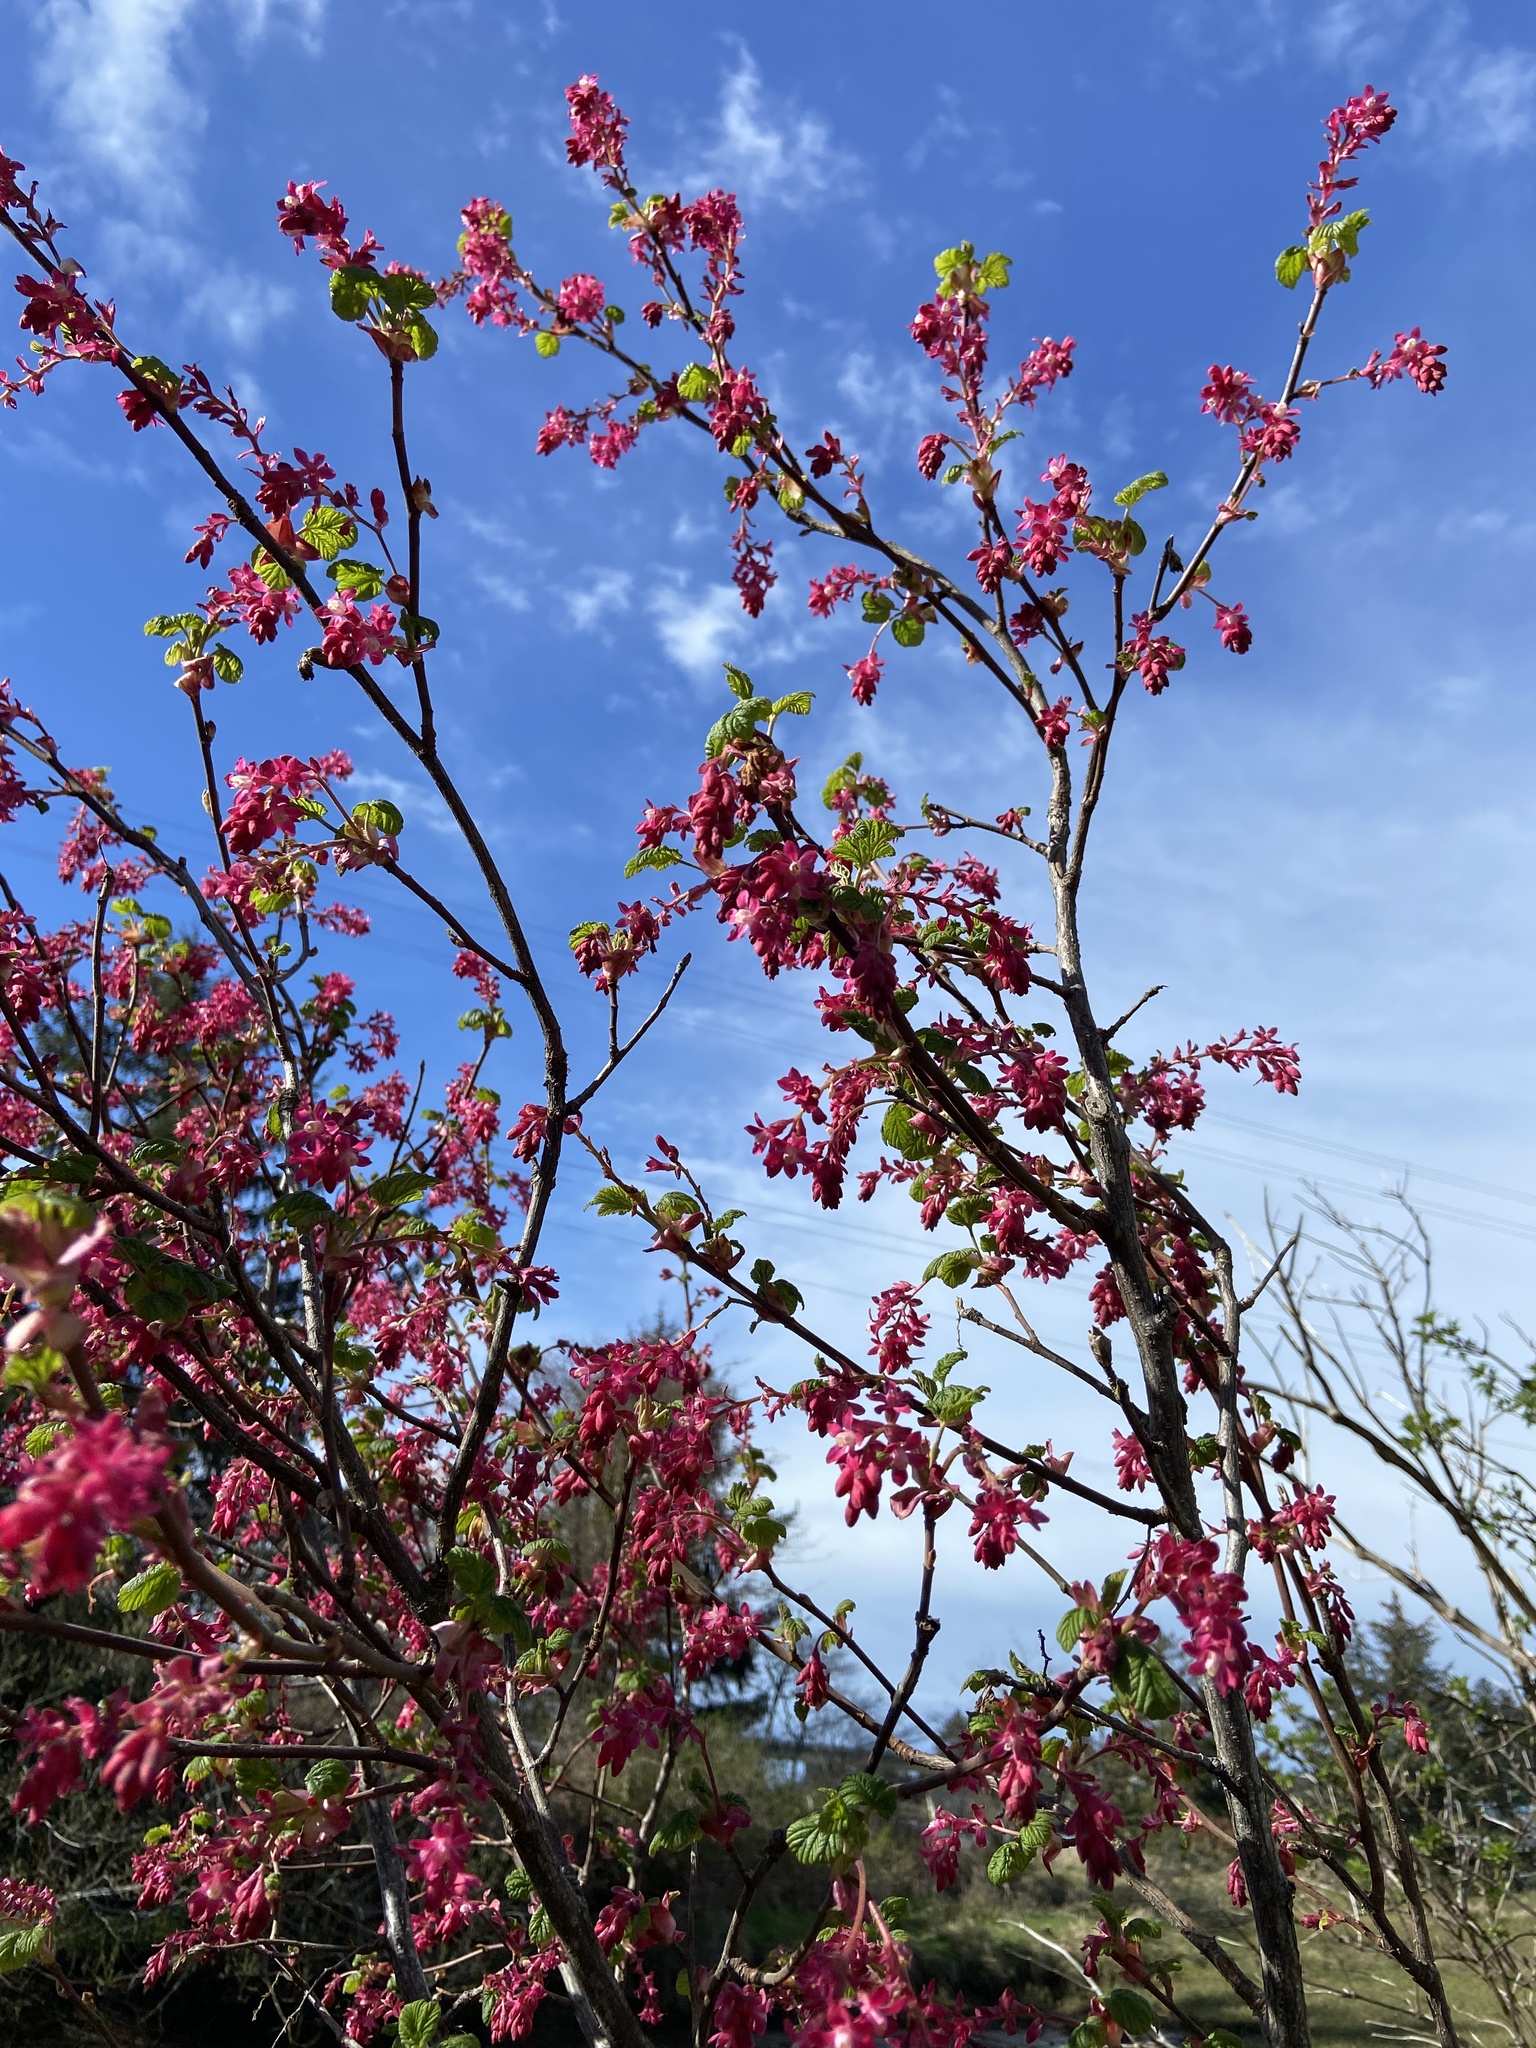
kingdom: Plantae
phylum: Tracheophyta
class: Magnoliopsida
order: Saxifragales
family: Grossulariaceae
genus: Ribes
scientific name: Ribes sanguineum
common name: Flowering currant
